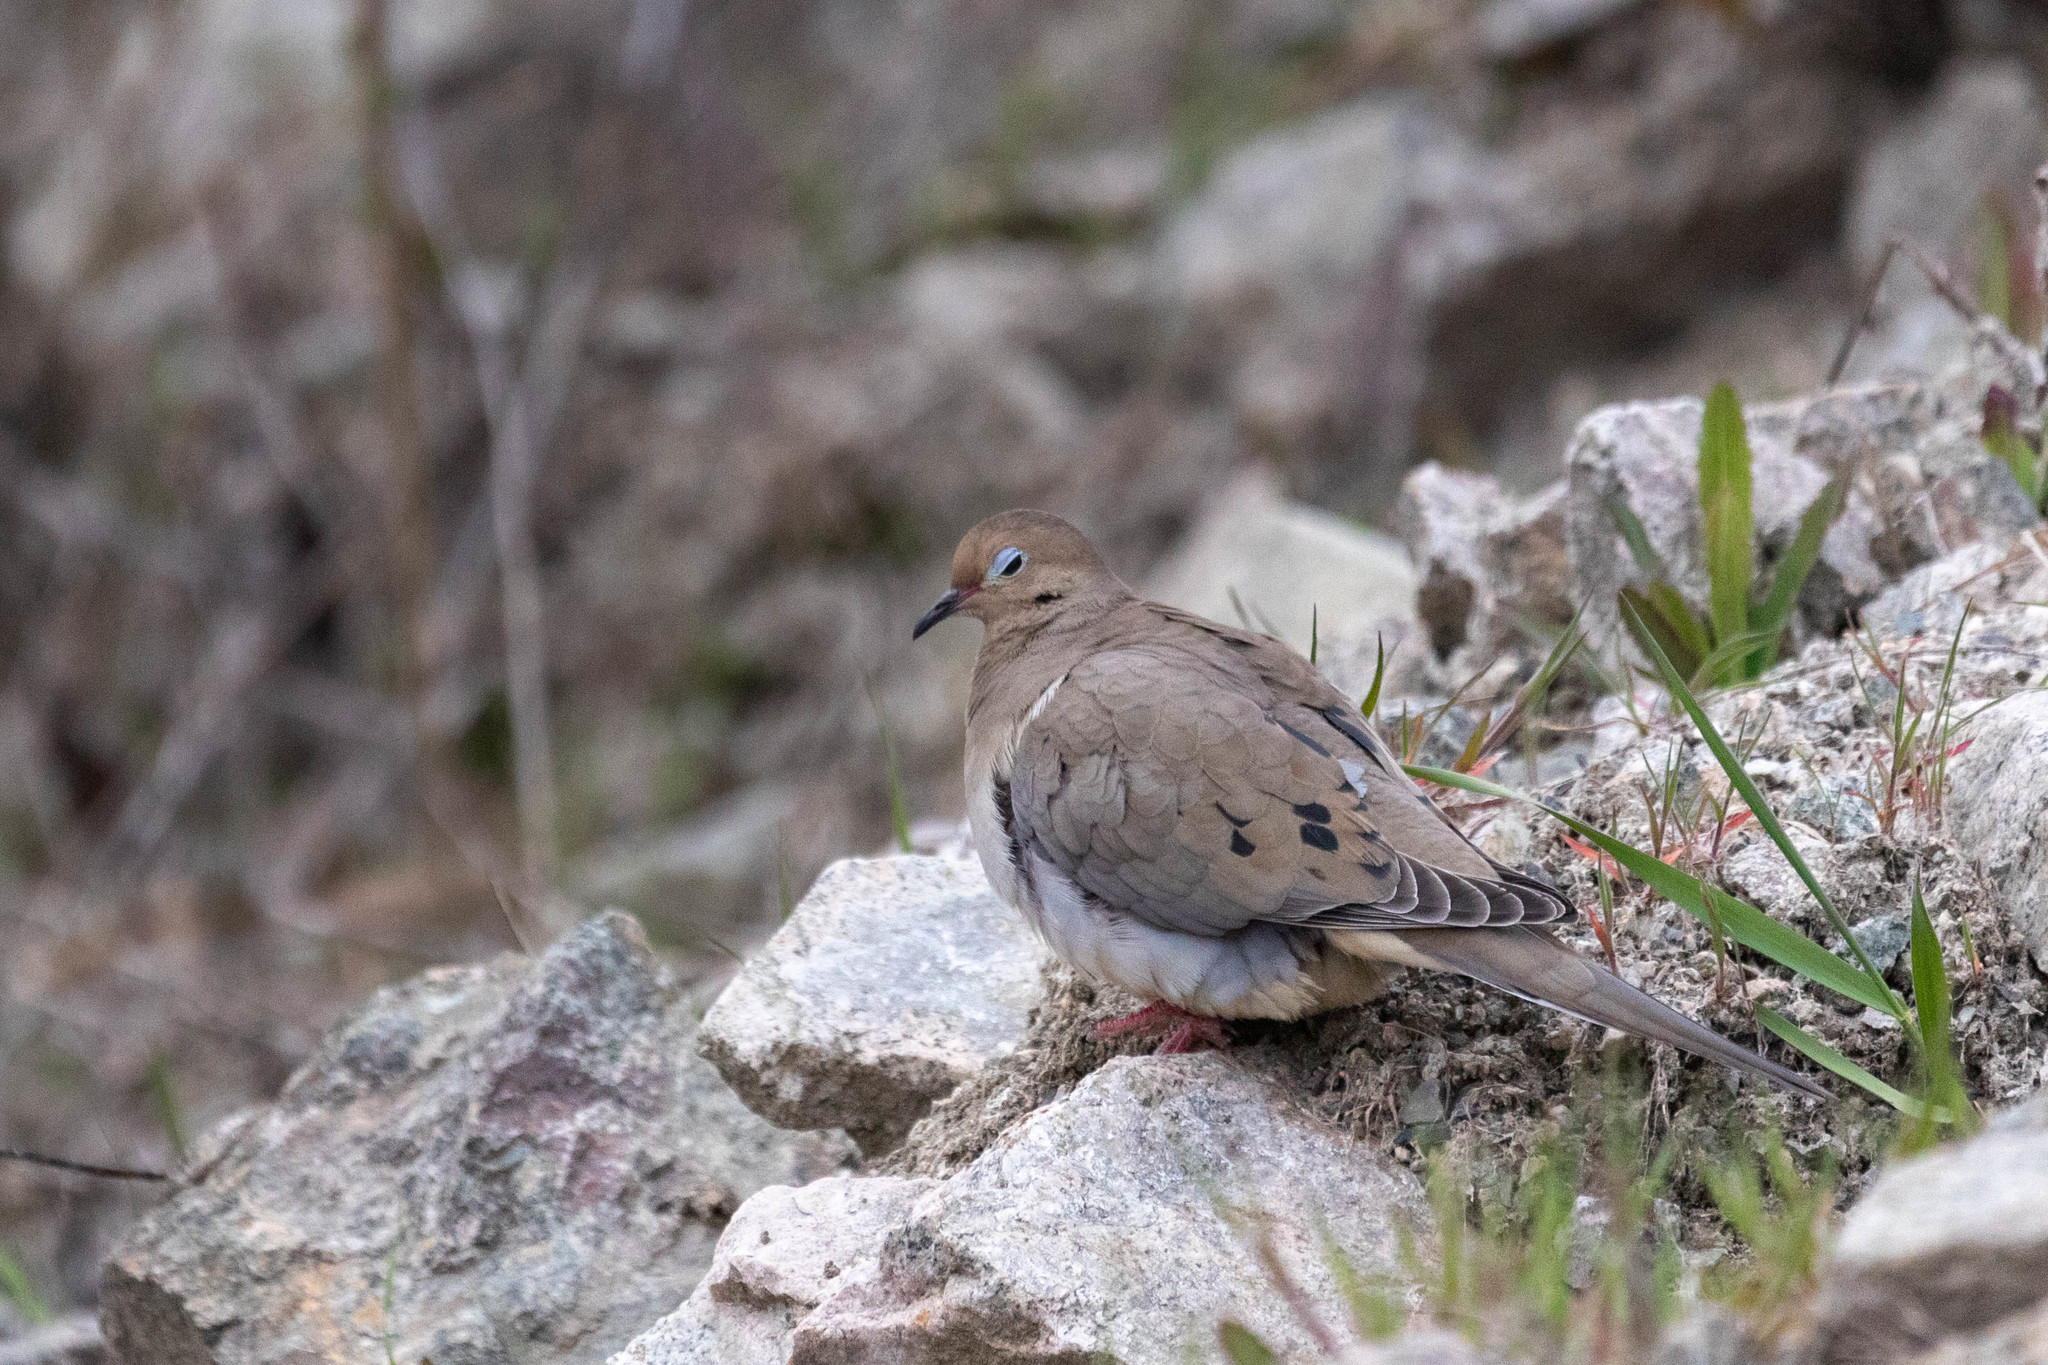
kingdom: Animalia
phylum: Chordata
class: Aves
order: Columbiformes
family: Columbidae
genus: Zenaida
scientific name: Zenaida macroura
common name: Mourning dove
